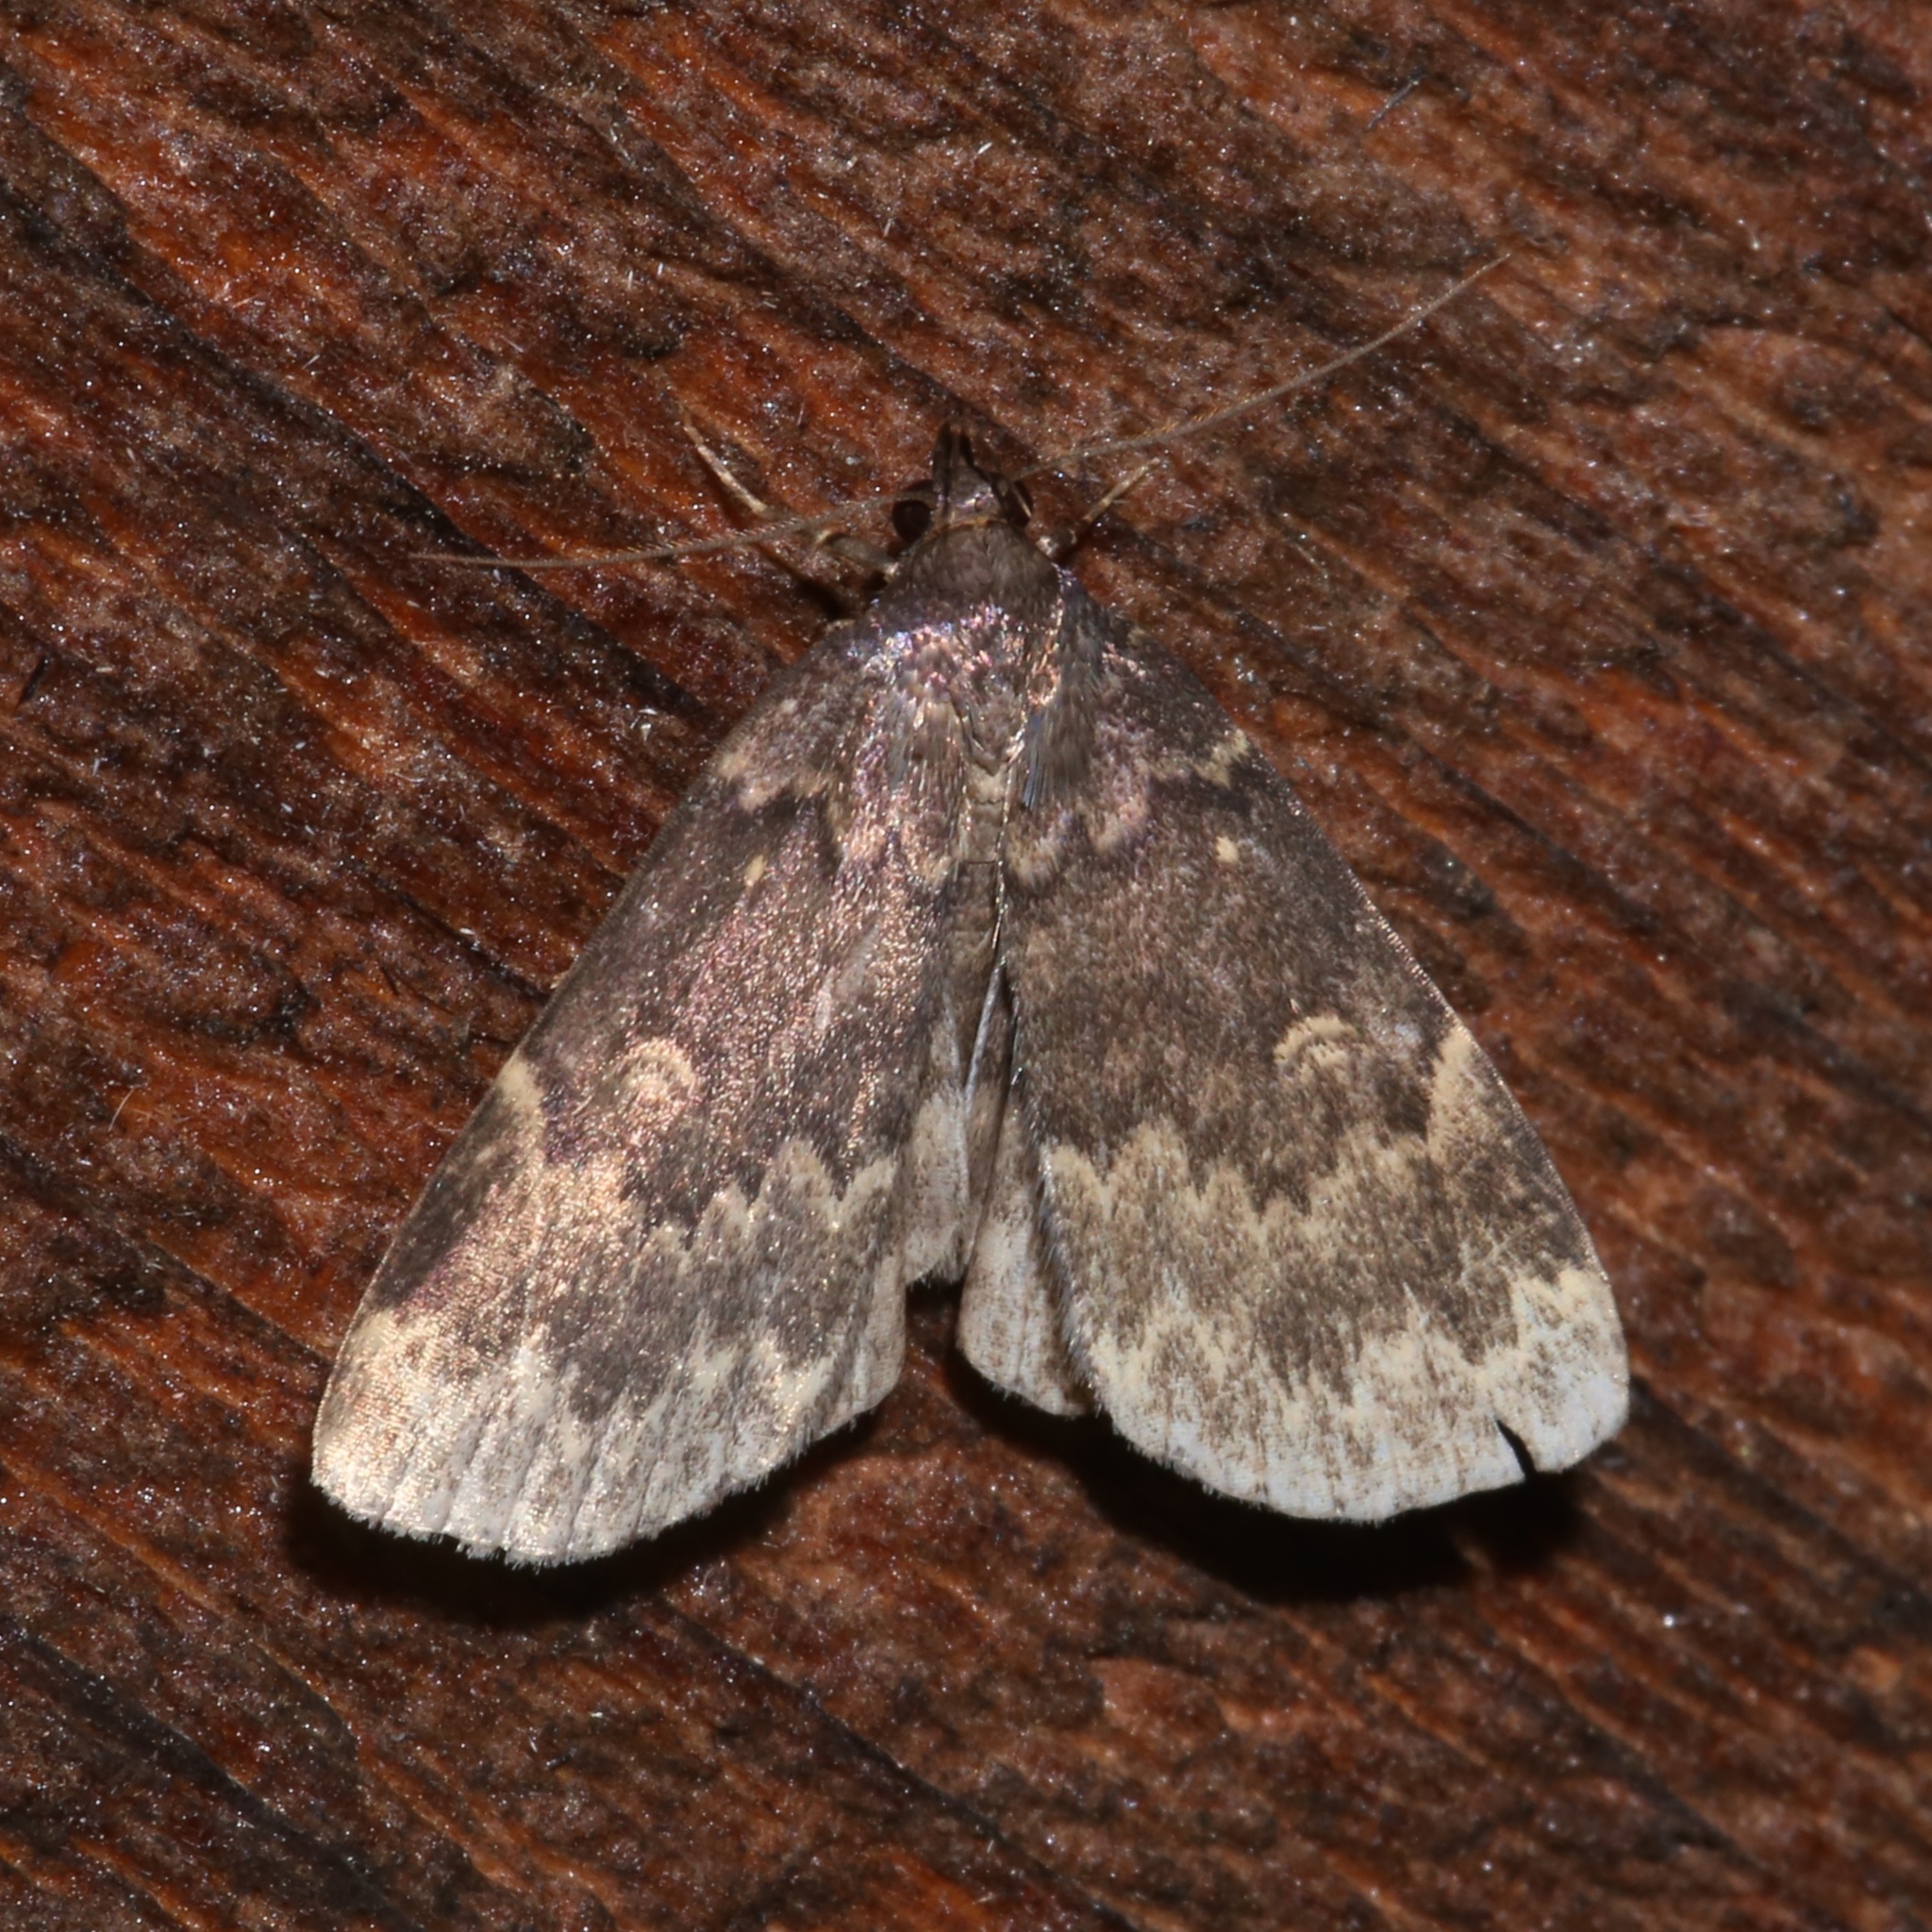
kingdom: Animalia
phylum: Arthropoda
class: Insecta
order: Lepidoptera
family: Erebidae
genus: Idia
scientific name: Idia lubricalis
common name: Twin-striped tabby
